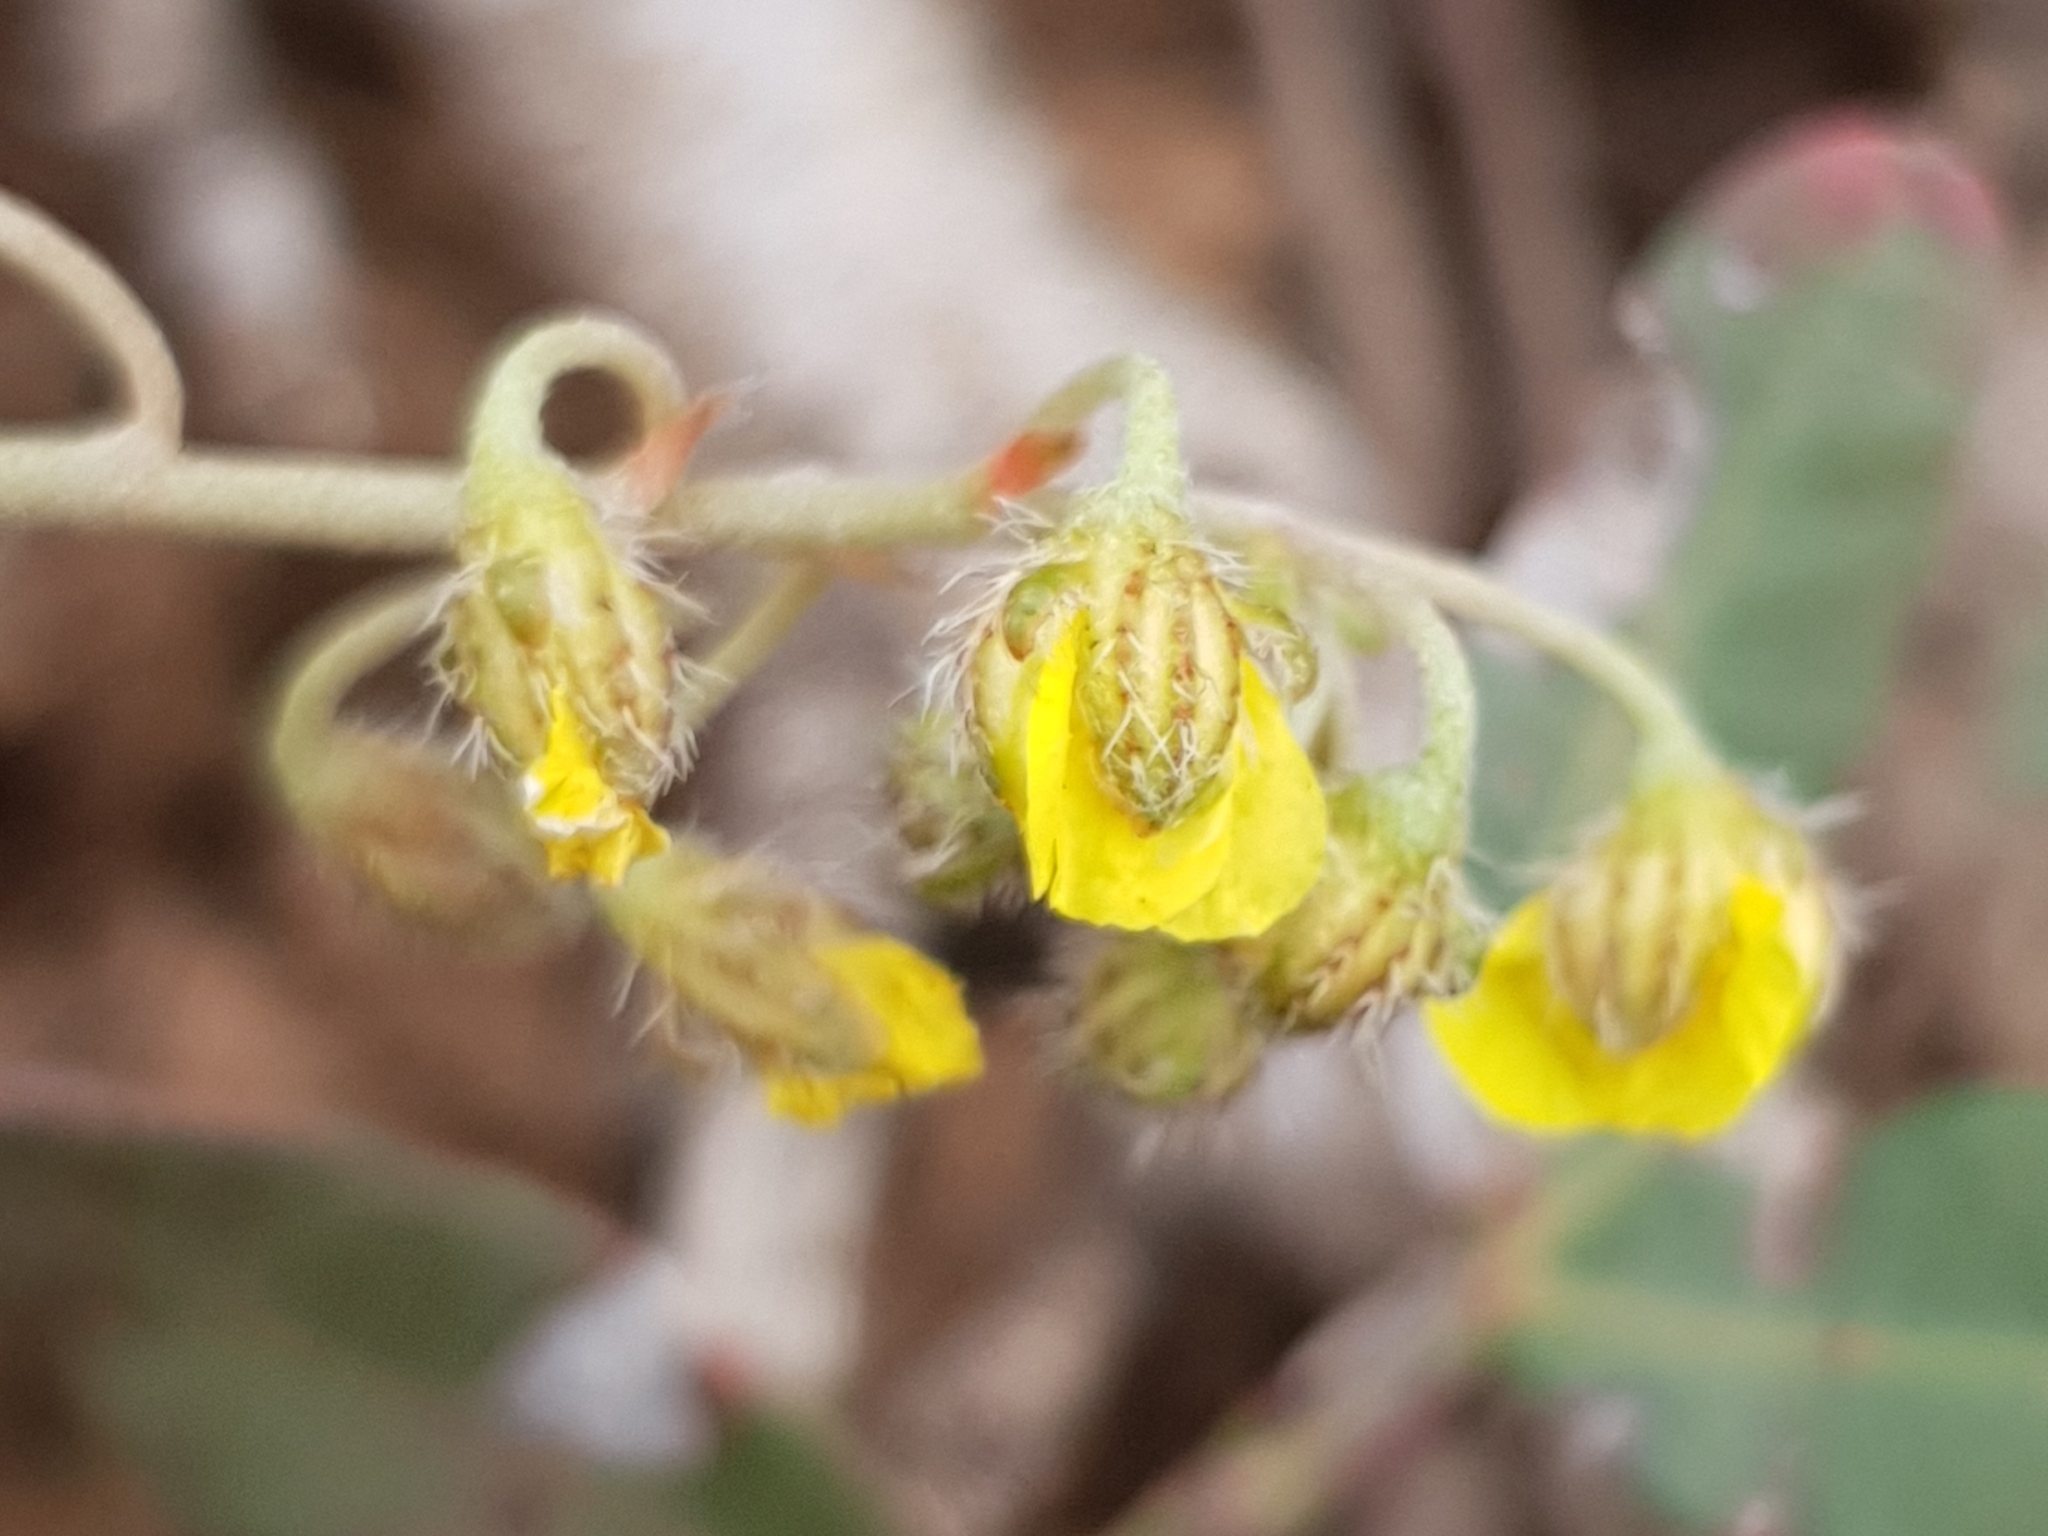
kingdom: Plantae
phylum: Tracheophyta
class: Magnoliopsida
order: Malvales
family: Cistaceae
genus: Helianthemum
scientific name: Helianthemum cinereum
